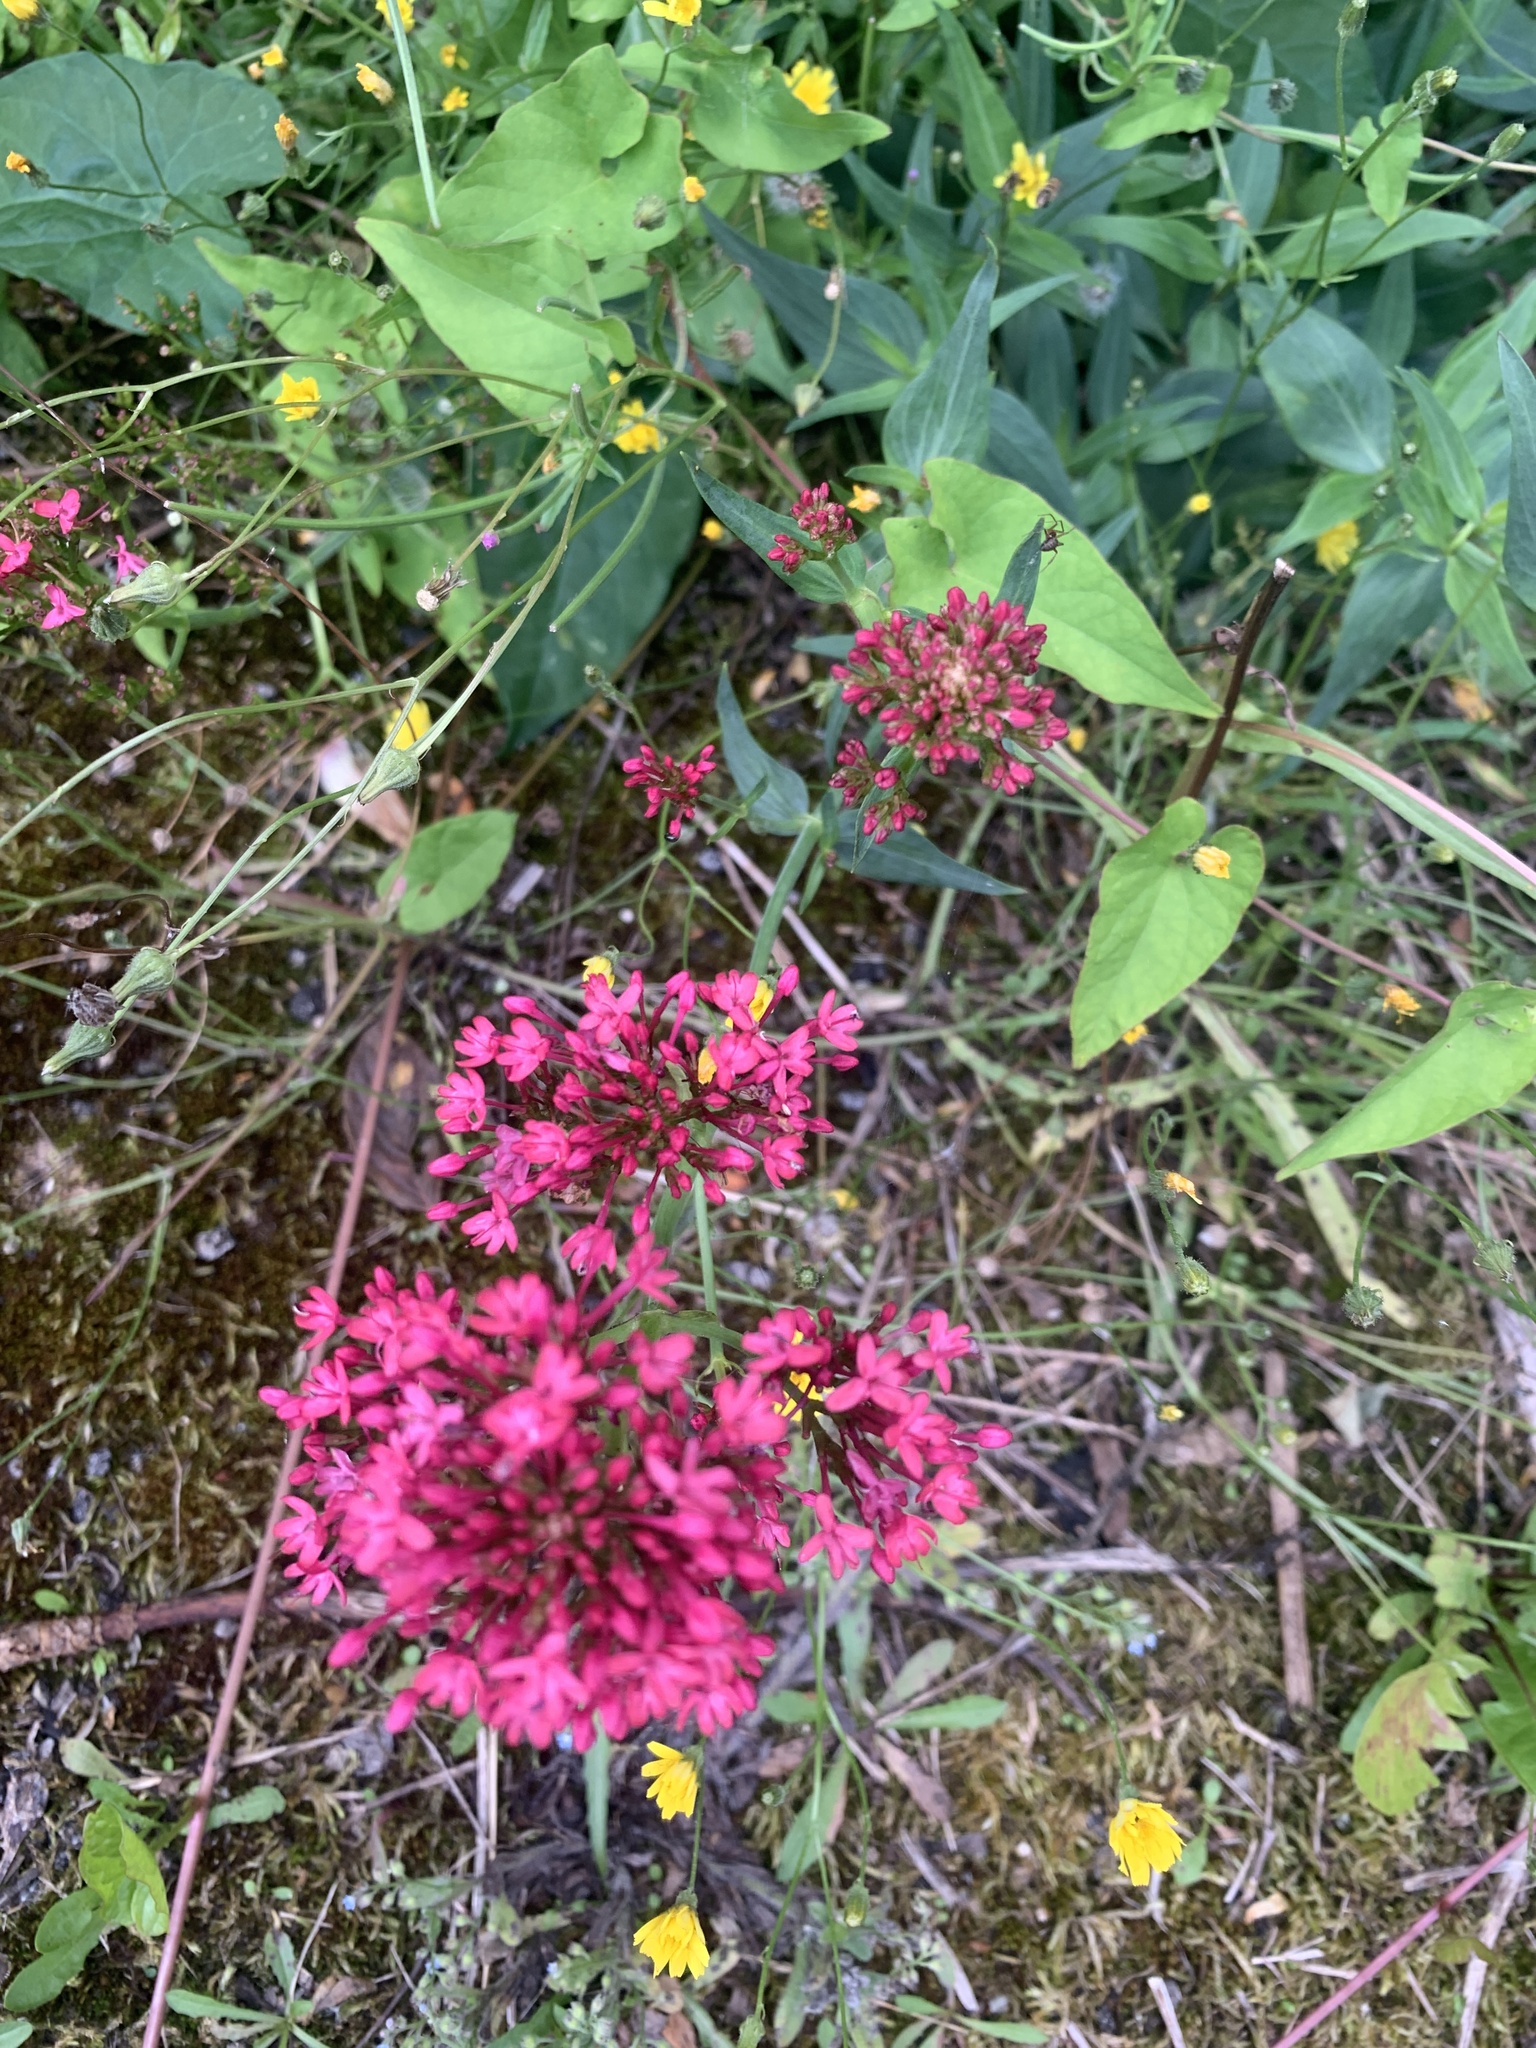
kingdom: Plantae
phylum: Tracheophyta
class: Magnoliopsida
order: Dipsacales
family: Caprifoliaceae
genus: Centranthus
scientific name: Centranthus ruber
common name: Red valerian
